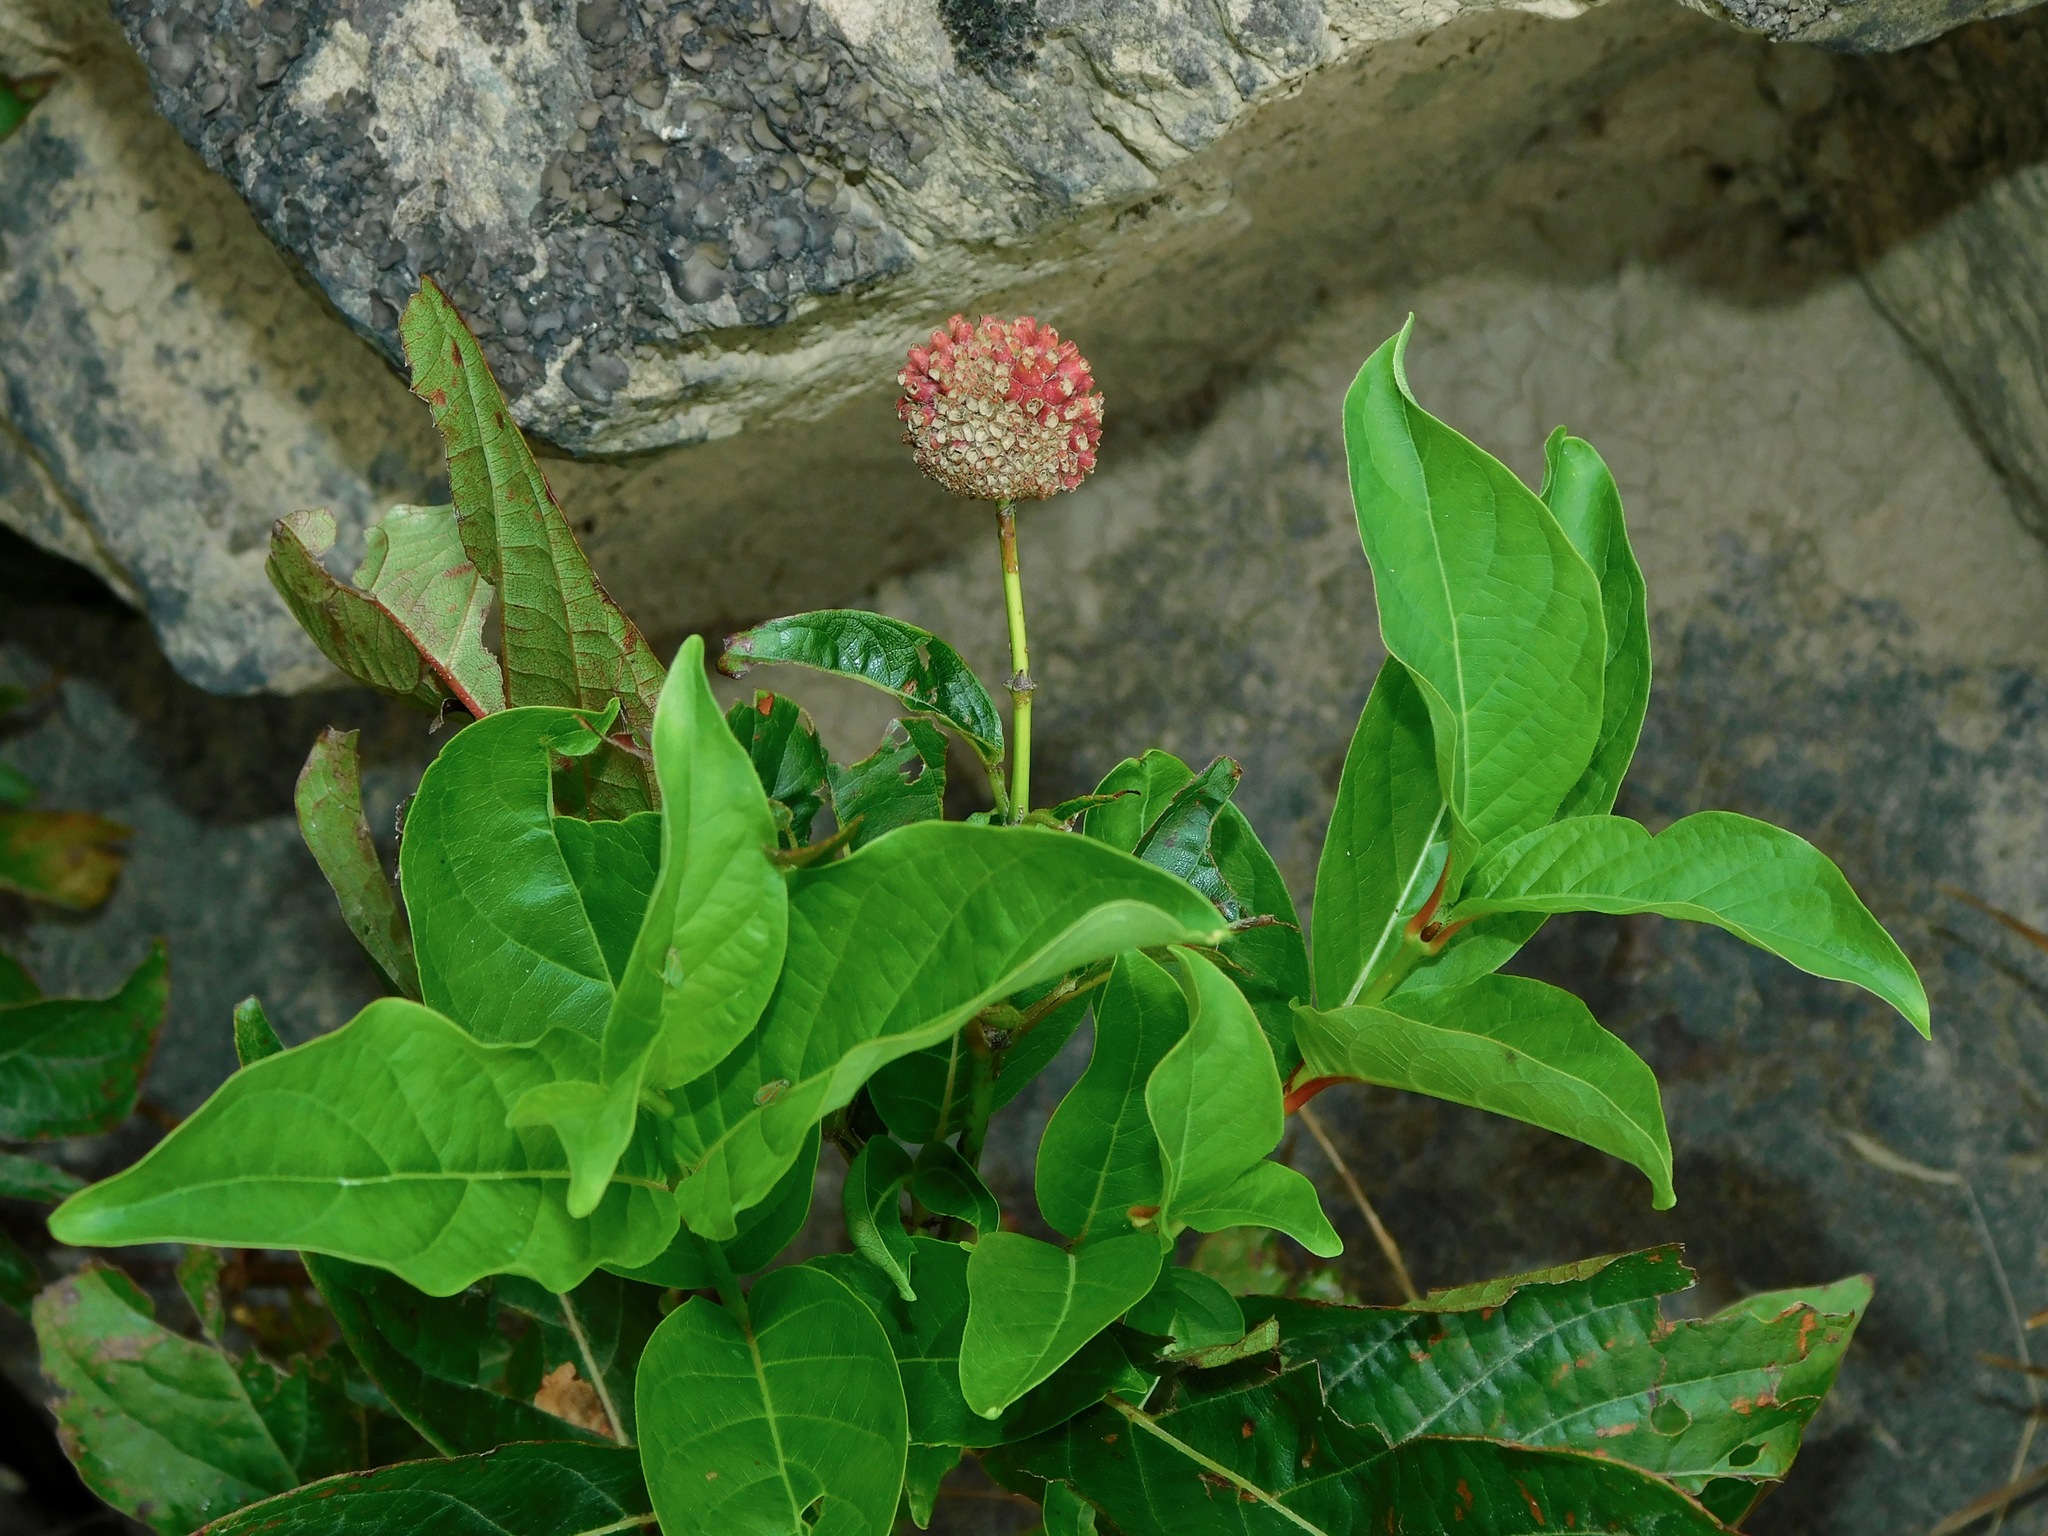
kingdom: Plantae
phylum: Tracheophyta
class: Magnoliopsida
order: Gentianales
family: Rubiaceae
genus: Cephalanthus
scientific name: Cephalanthus occidentalis
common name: Button-willow
